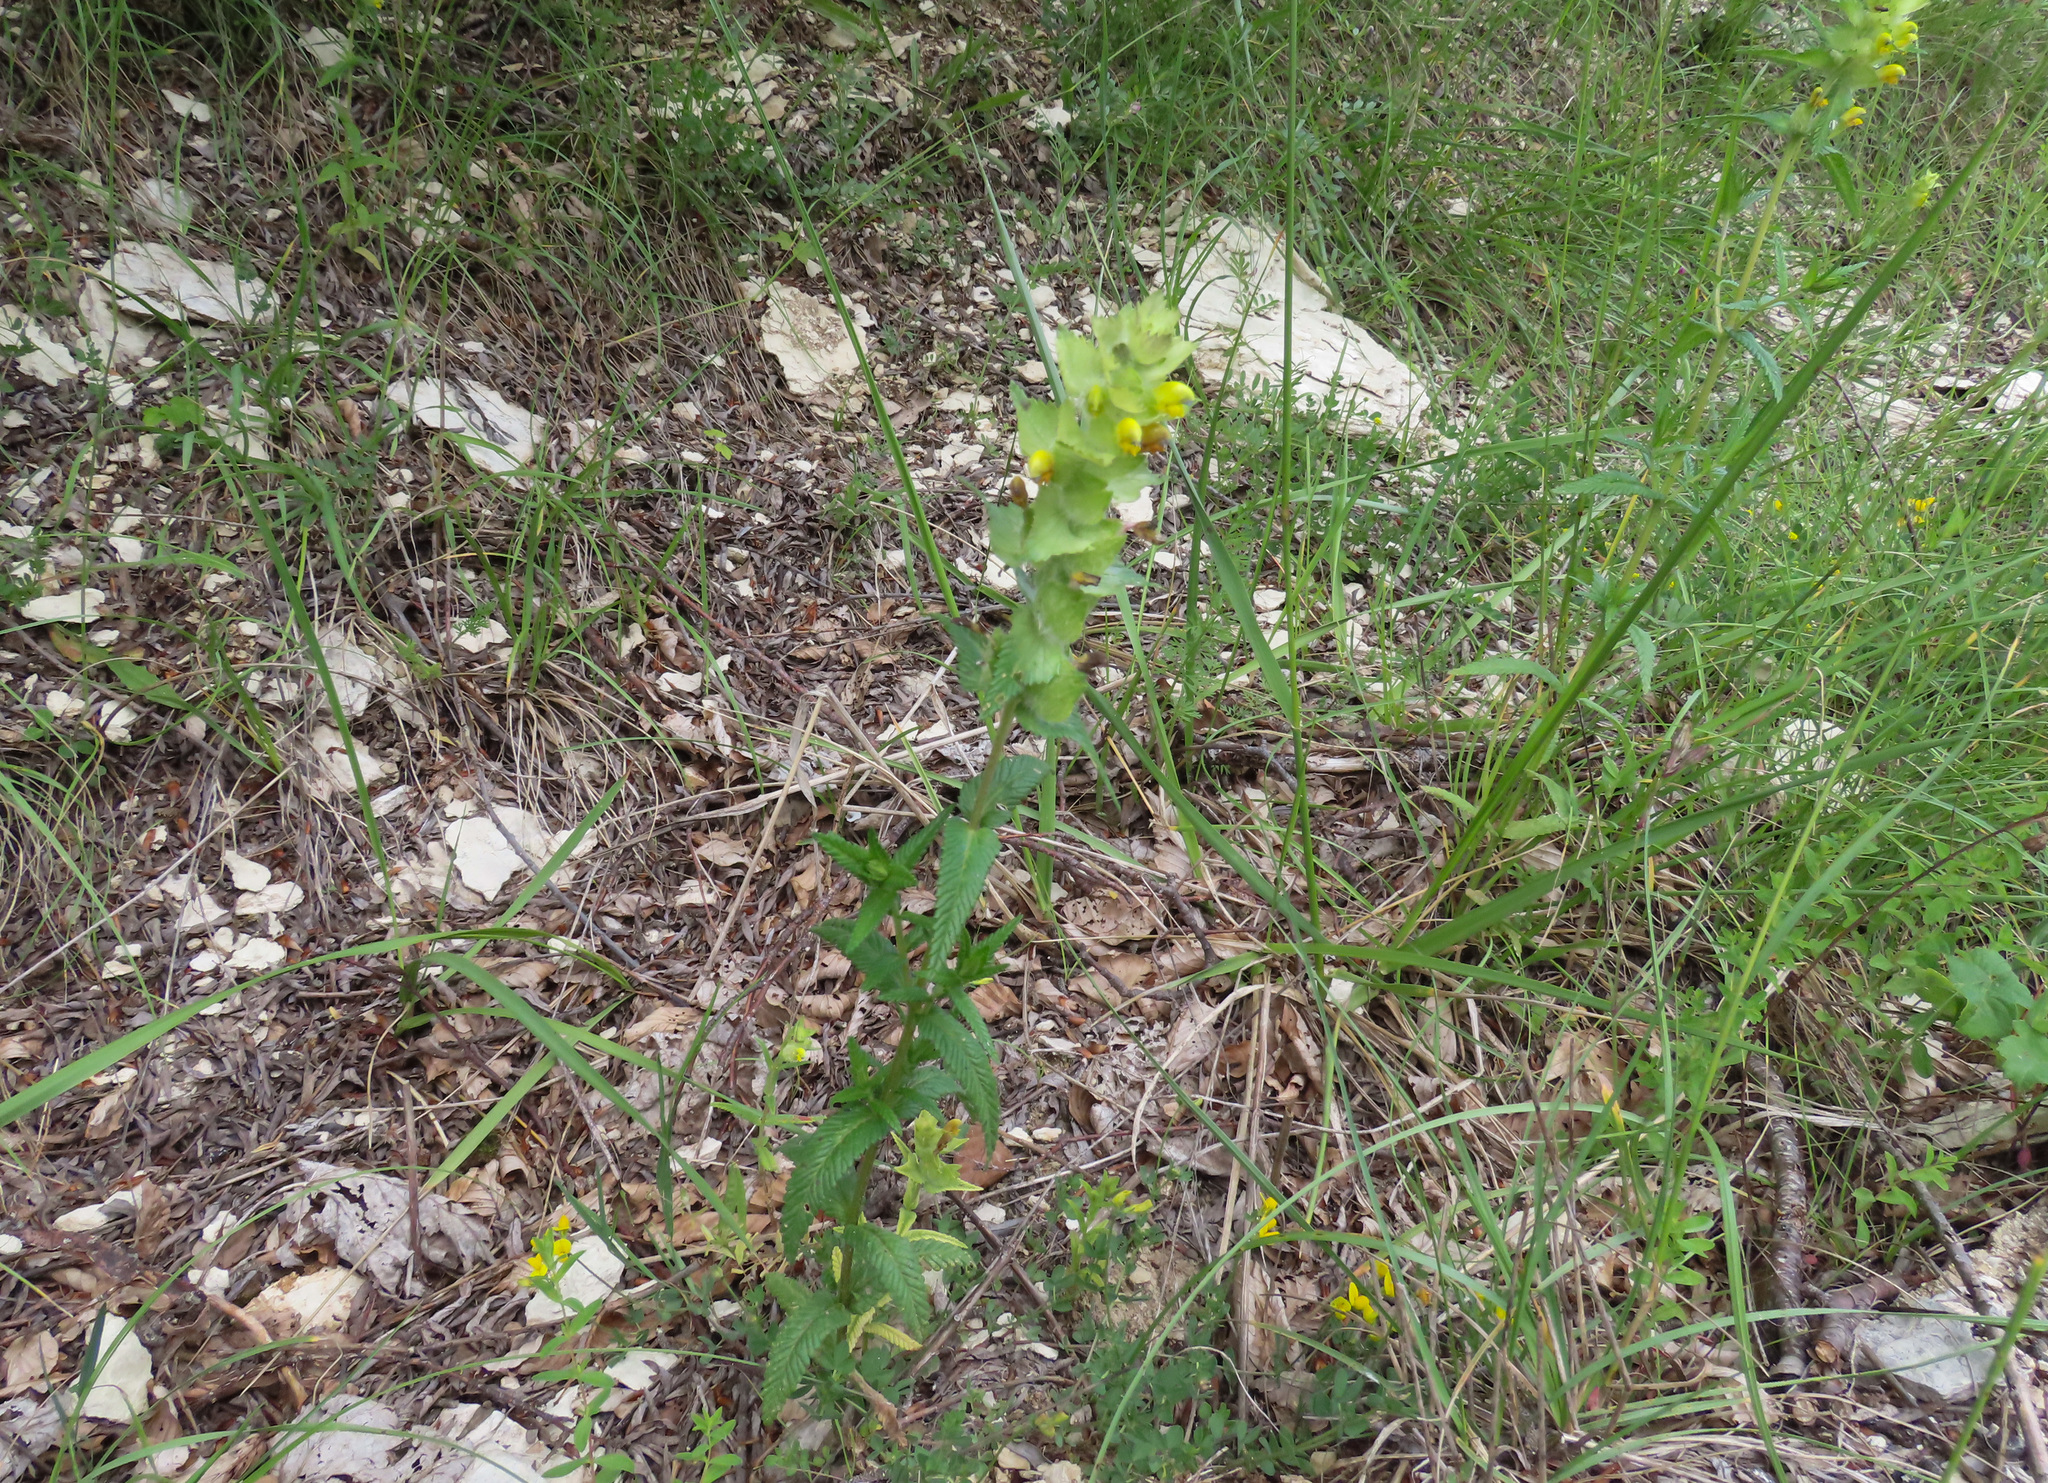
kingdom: Plantae
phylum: Tracheophyta
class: Magnoliopsida
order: Lamiales
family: Orobanchaceae
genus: Rhinanthus
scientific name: Rhinanthus alectorolophus
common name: Greater yellow-rattle
